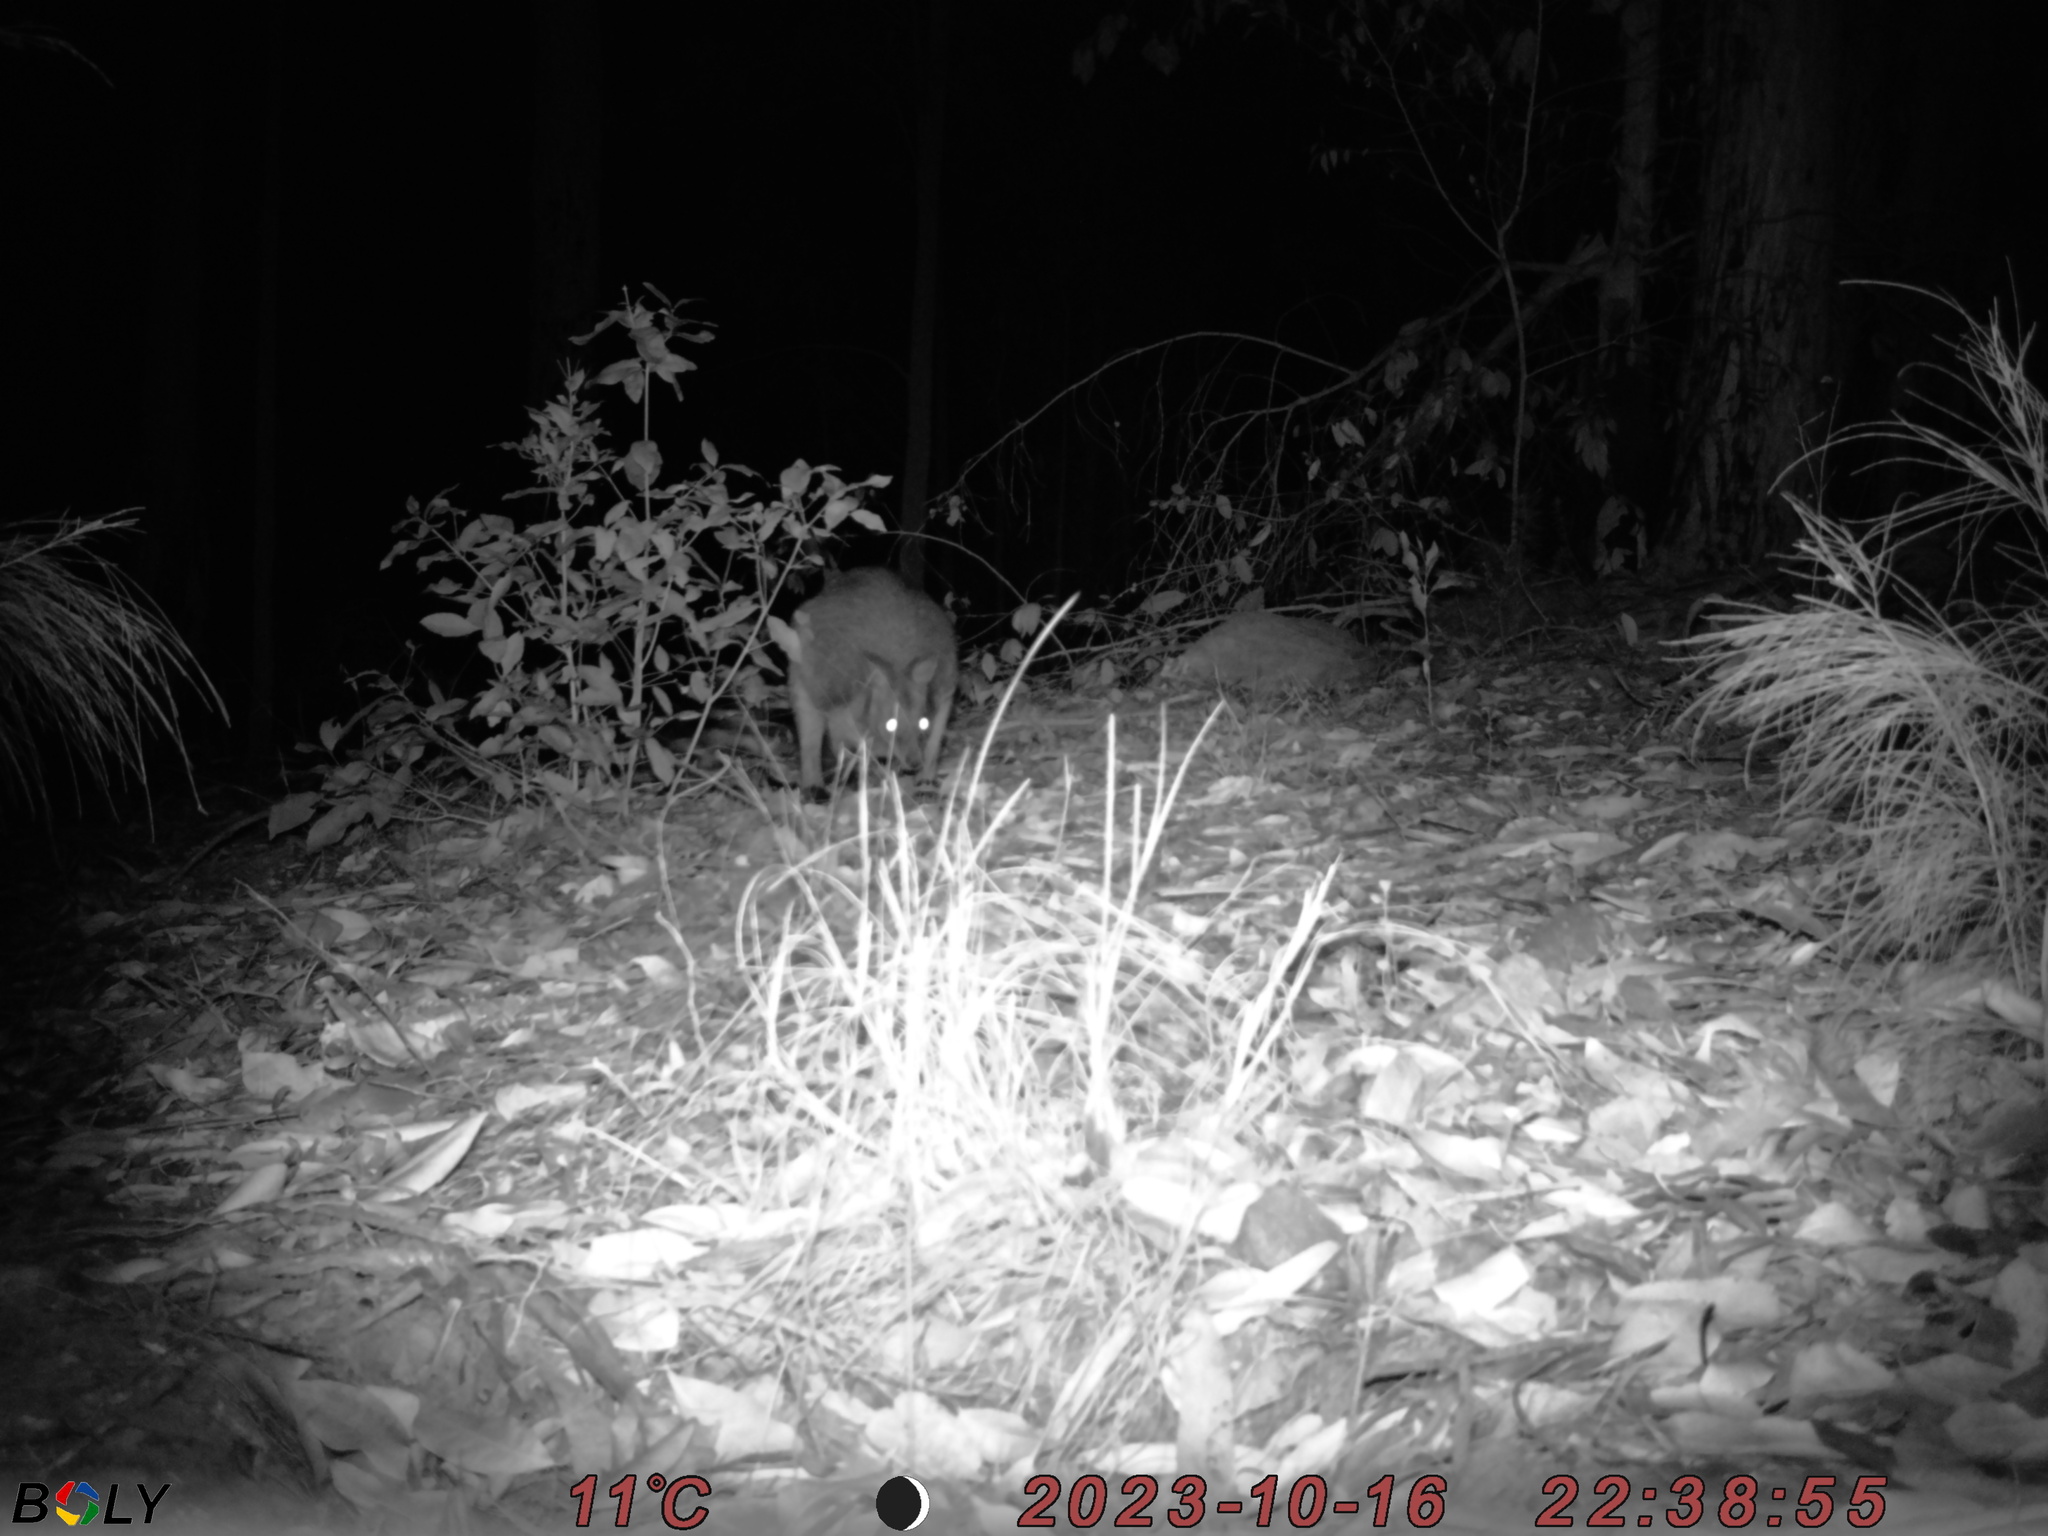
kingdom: Animalia
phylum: Chordata
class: Mammalia
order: Diprotodontia
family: Macropodidae
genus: Wallabia
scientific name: Wallabia bicolor
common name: Swamp wallaby
